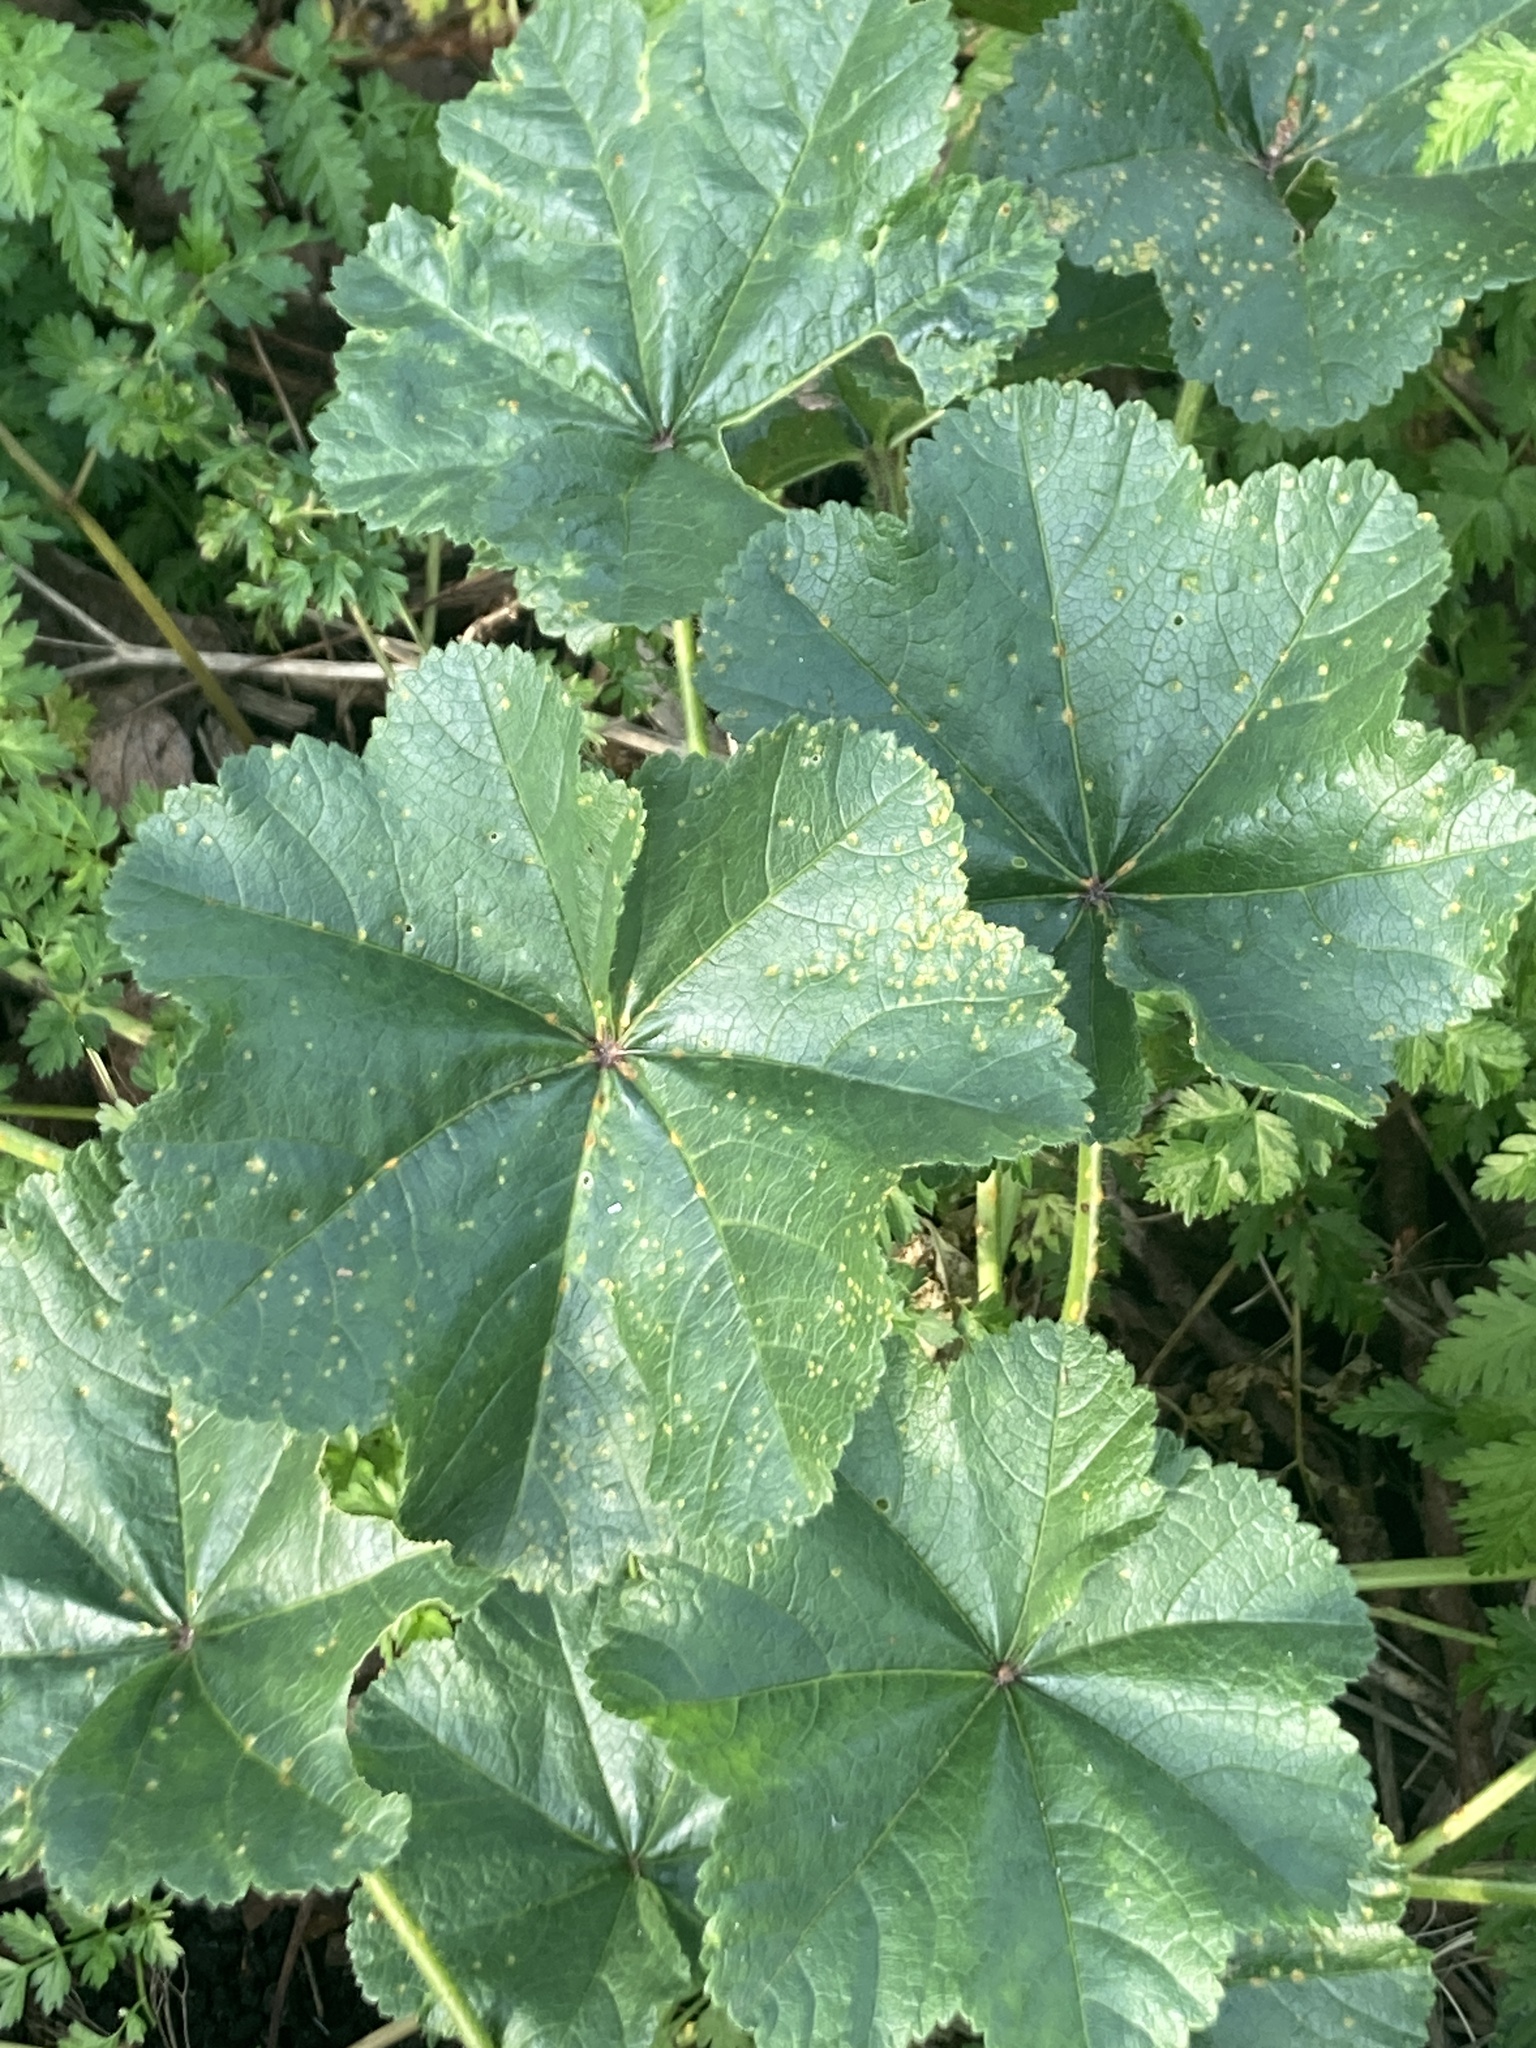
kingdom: Plantae
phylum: Tracheophyta
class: Magnoliopsida
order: Malvales
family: Malvaceae
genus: Malva
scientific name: Malva sylvestris
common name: Common mallow
